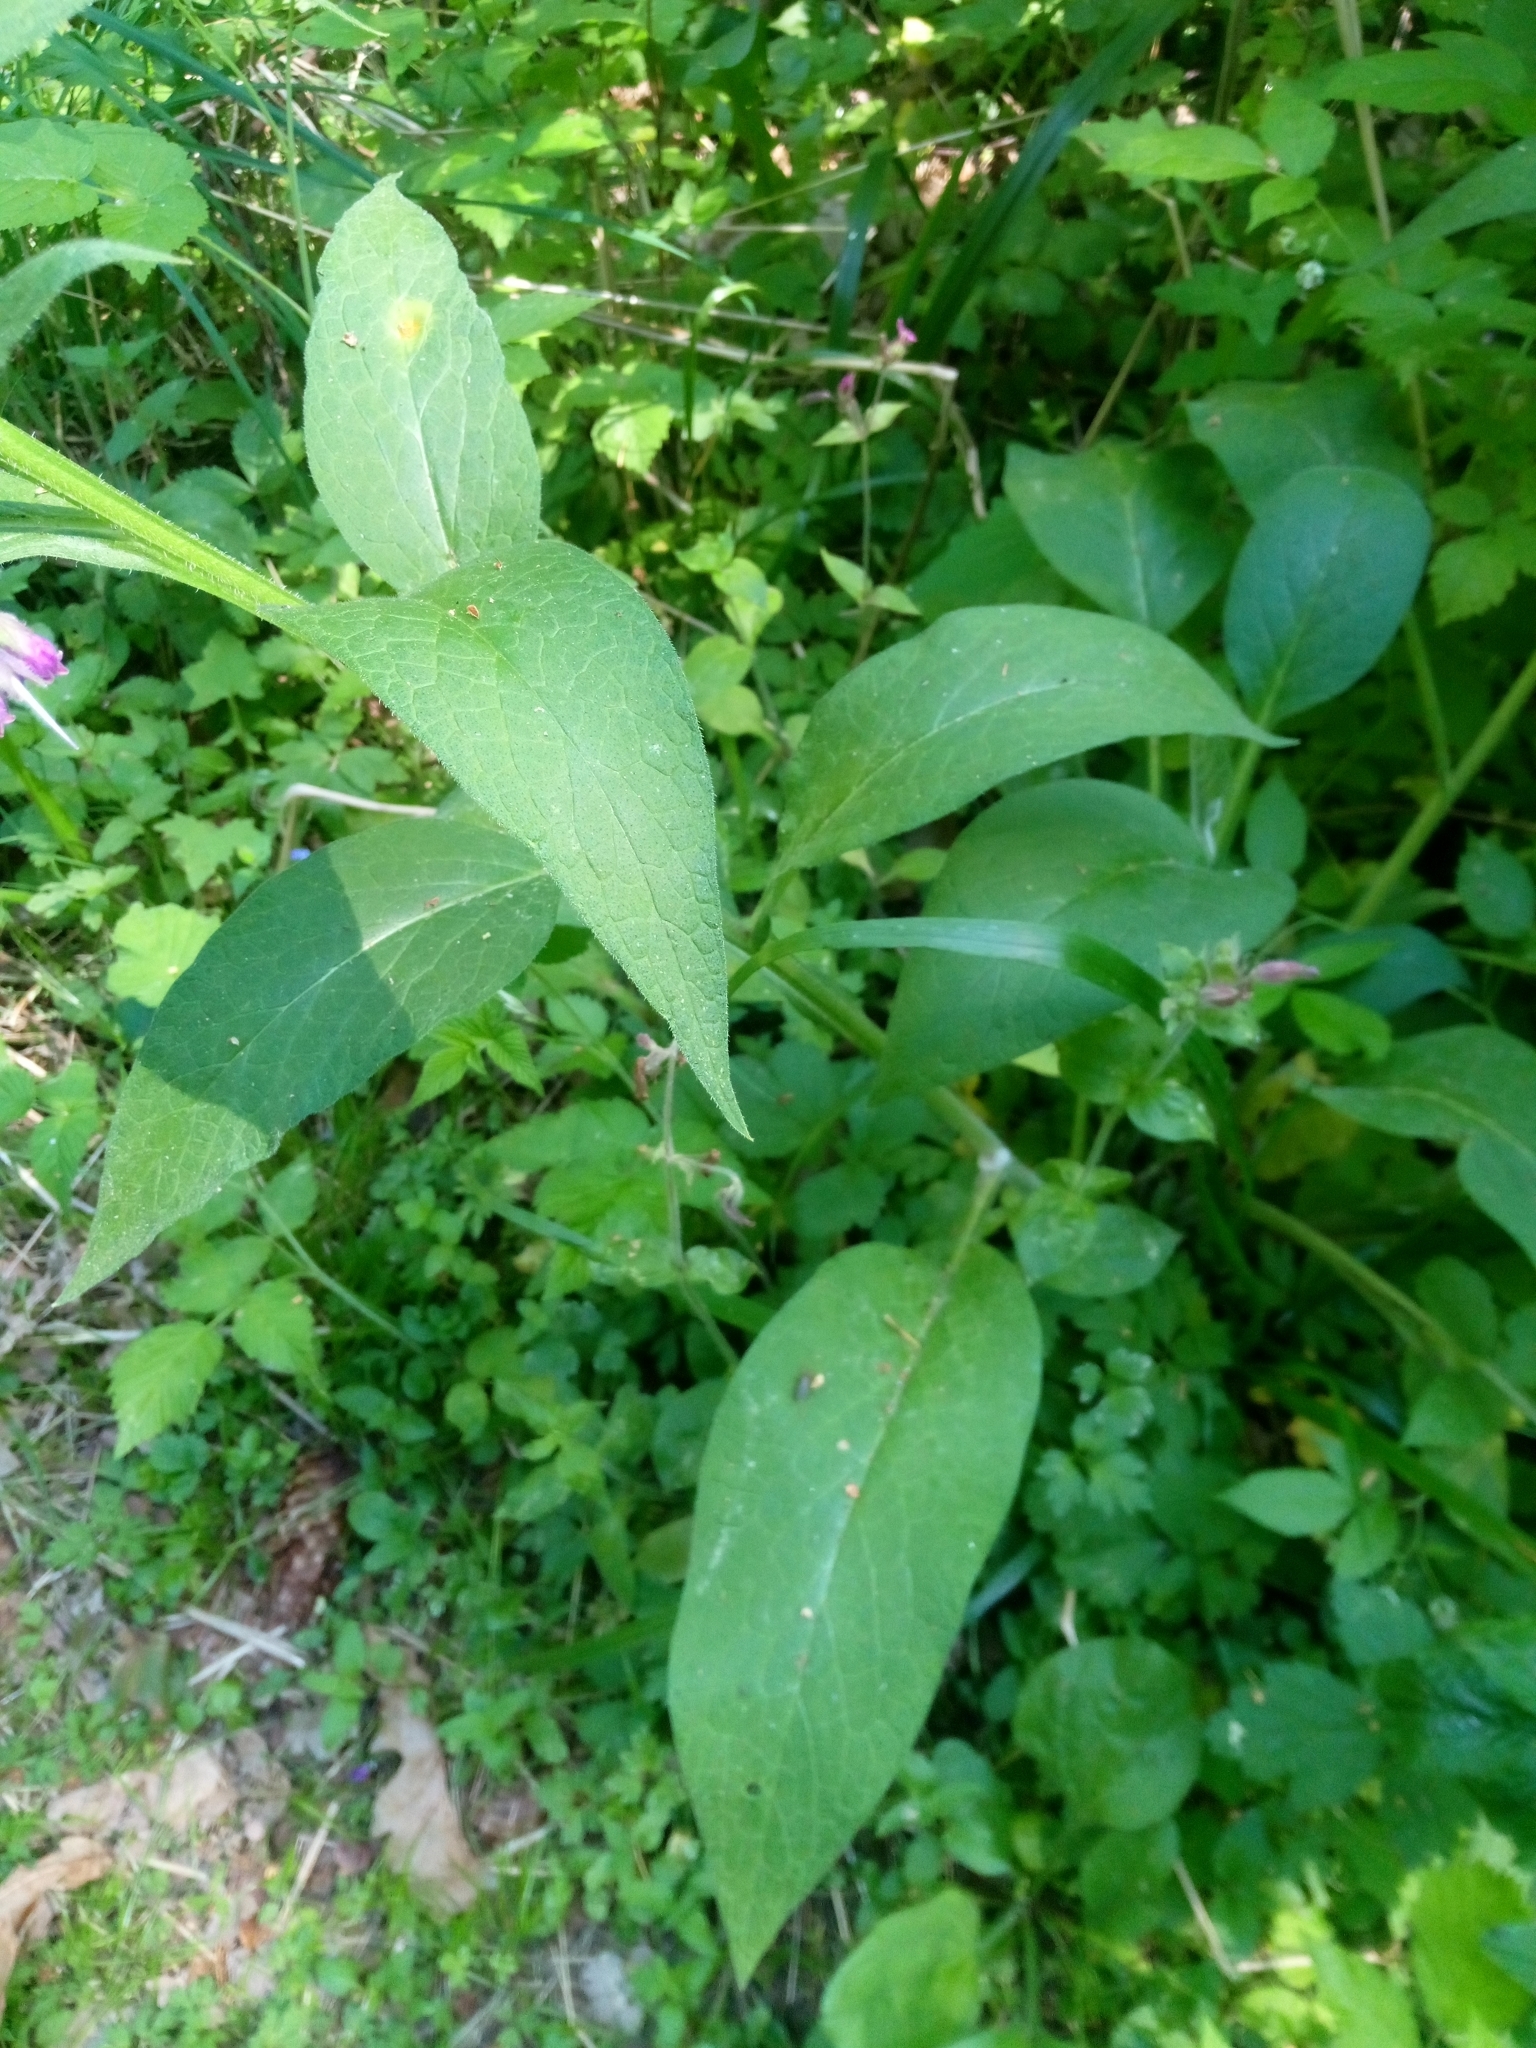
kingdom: Plantae
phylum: Tracheophyta
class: Magnoliopsida
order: Boraginales
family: Boraginaceae
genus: Symphytum
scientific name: Symphytum officinale
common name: Common comfrey
